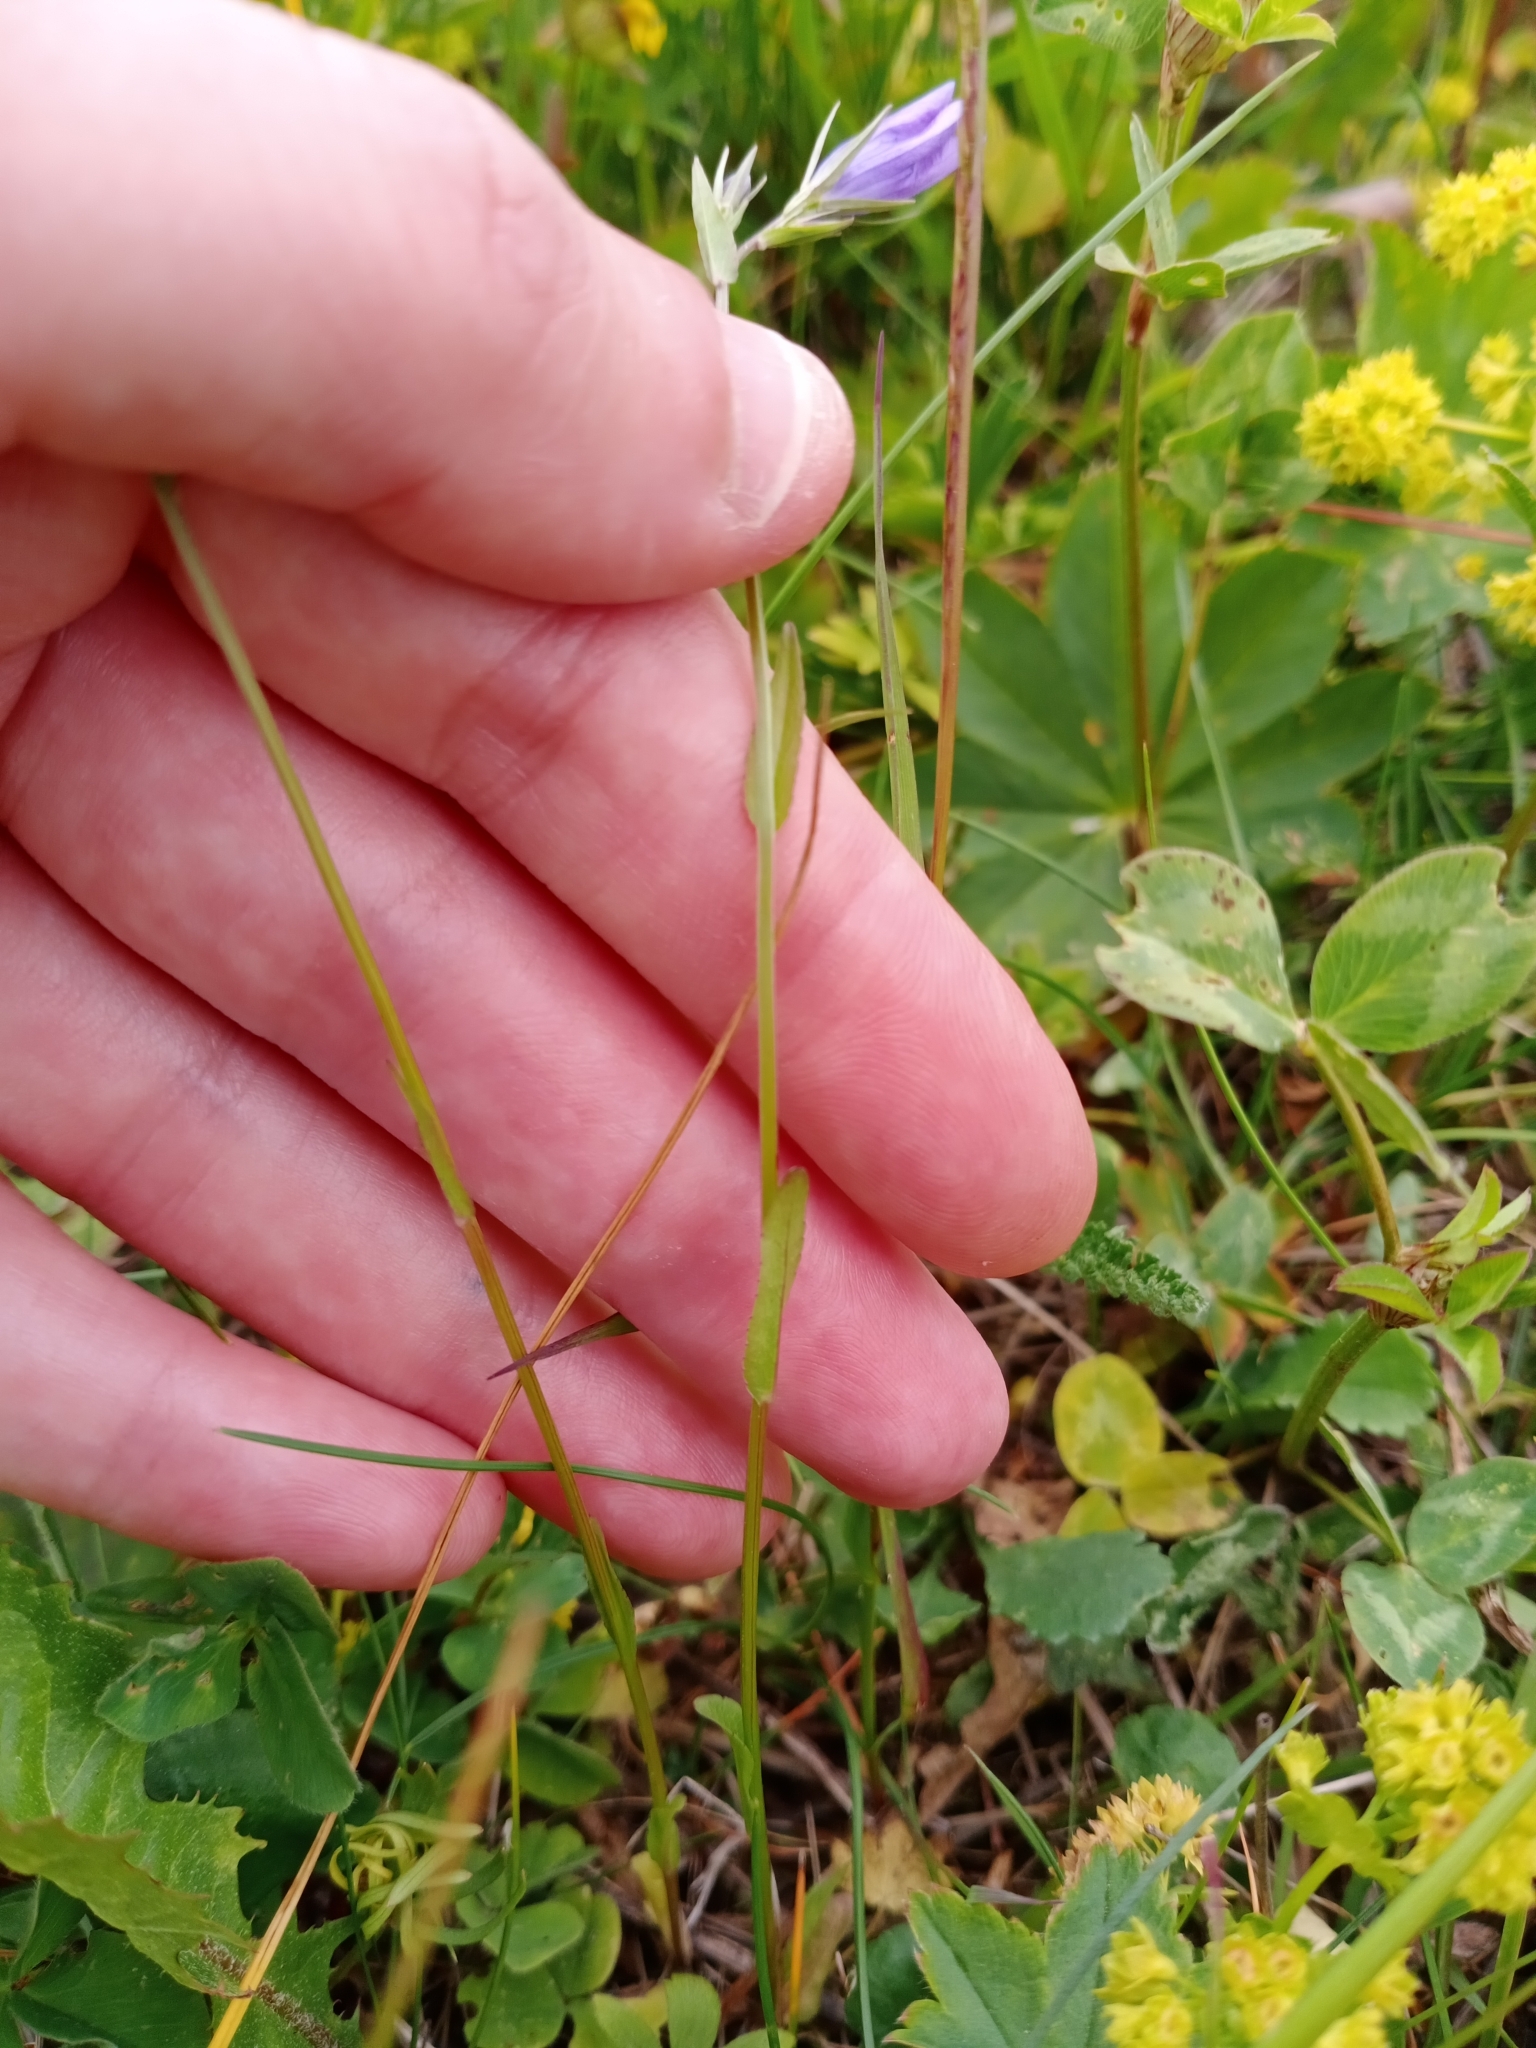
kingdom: Plantae
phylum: Tracheophyta
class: Magnoliopsida
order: Asterales
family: Campanulaceae
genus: Campanula
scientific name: Campanula patula
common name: Spreading bellflower
